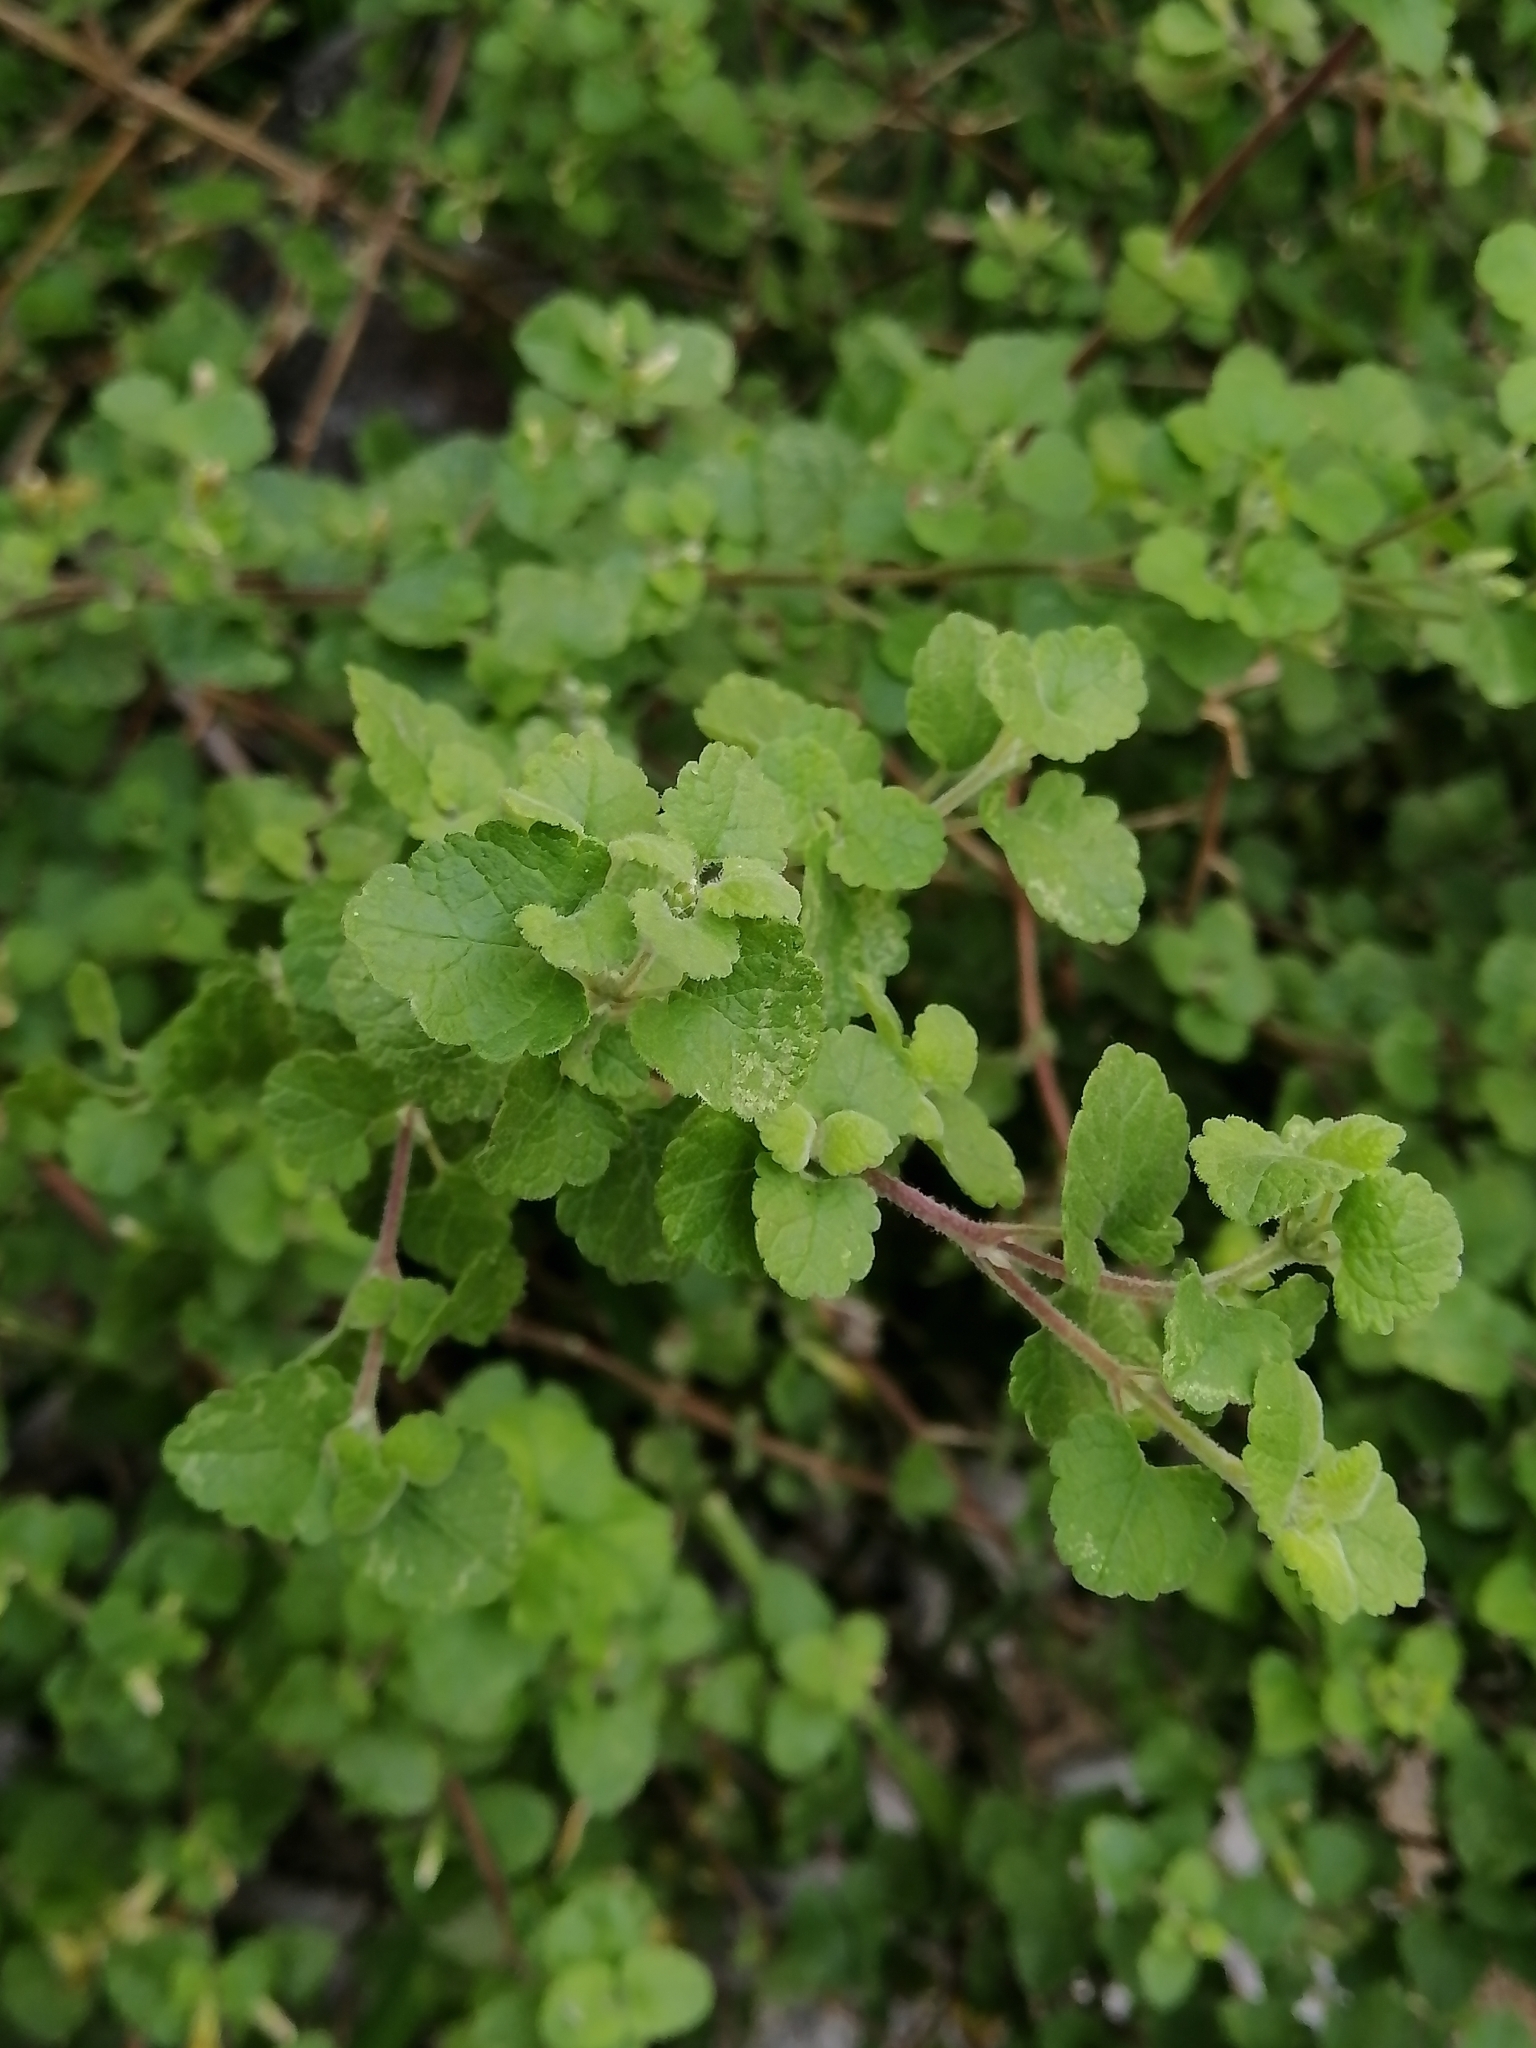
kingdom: Plantae
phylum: Tracheophyta
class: Magnoliopsida
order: Asterales
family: Asteraceae
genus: Brickellia
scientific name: Brickellia veronicifolia
